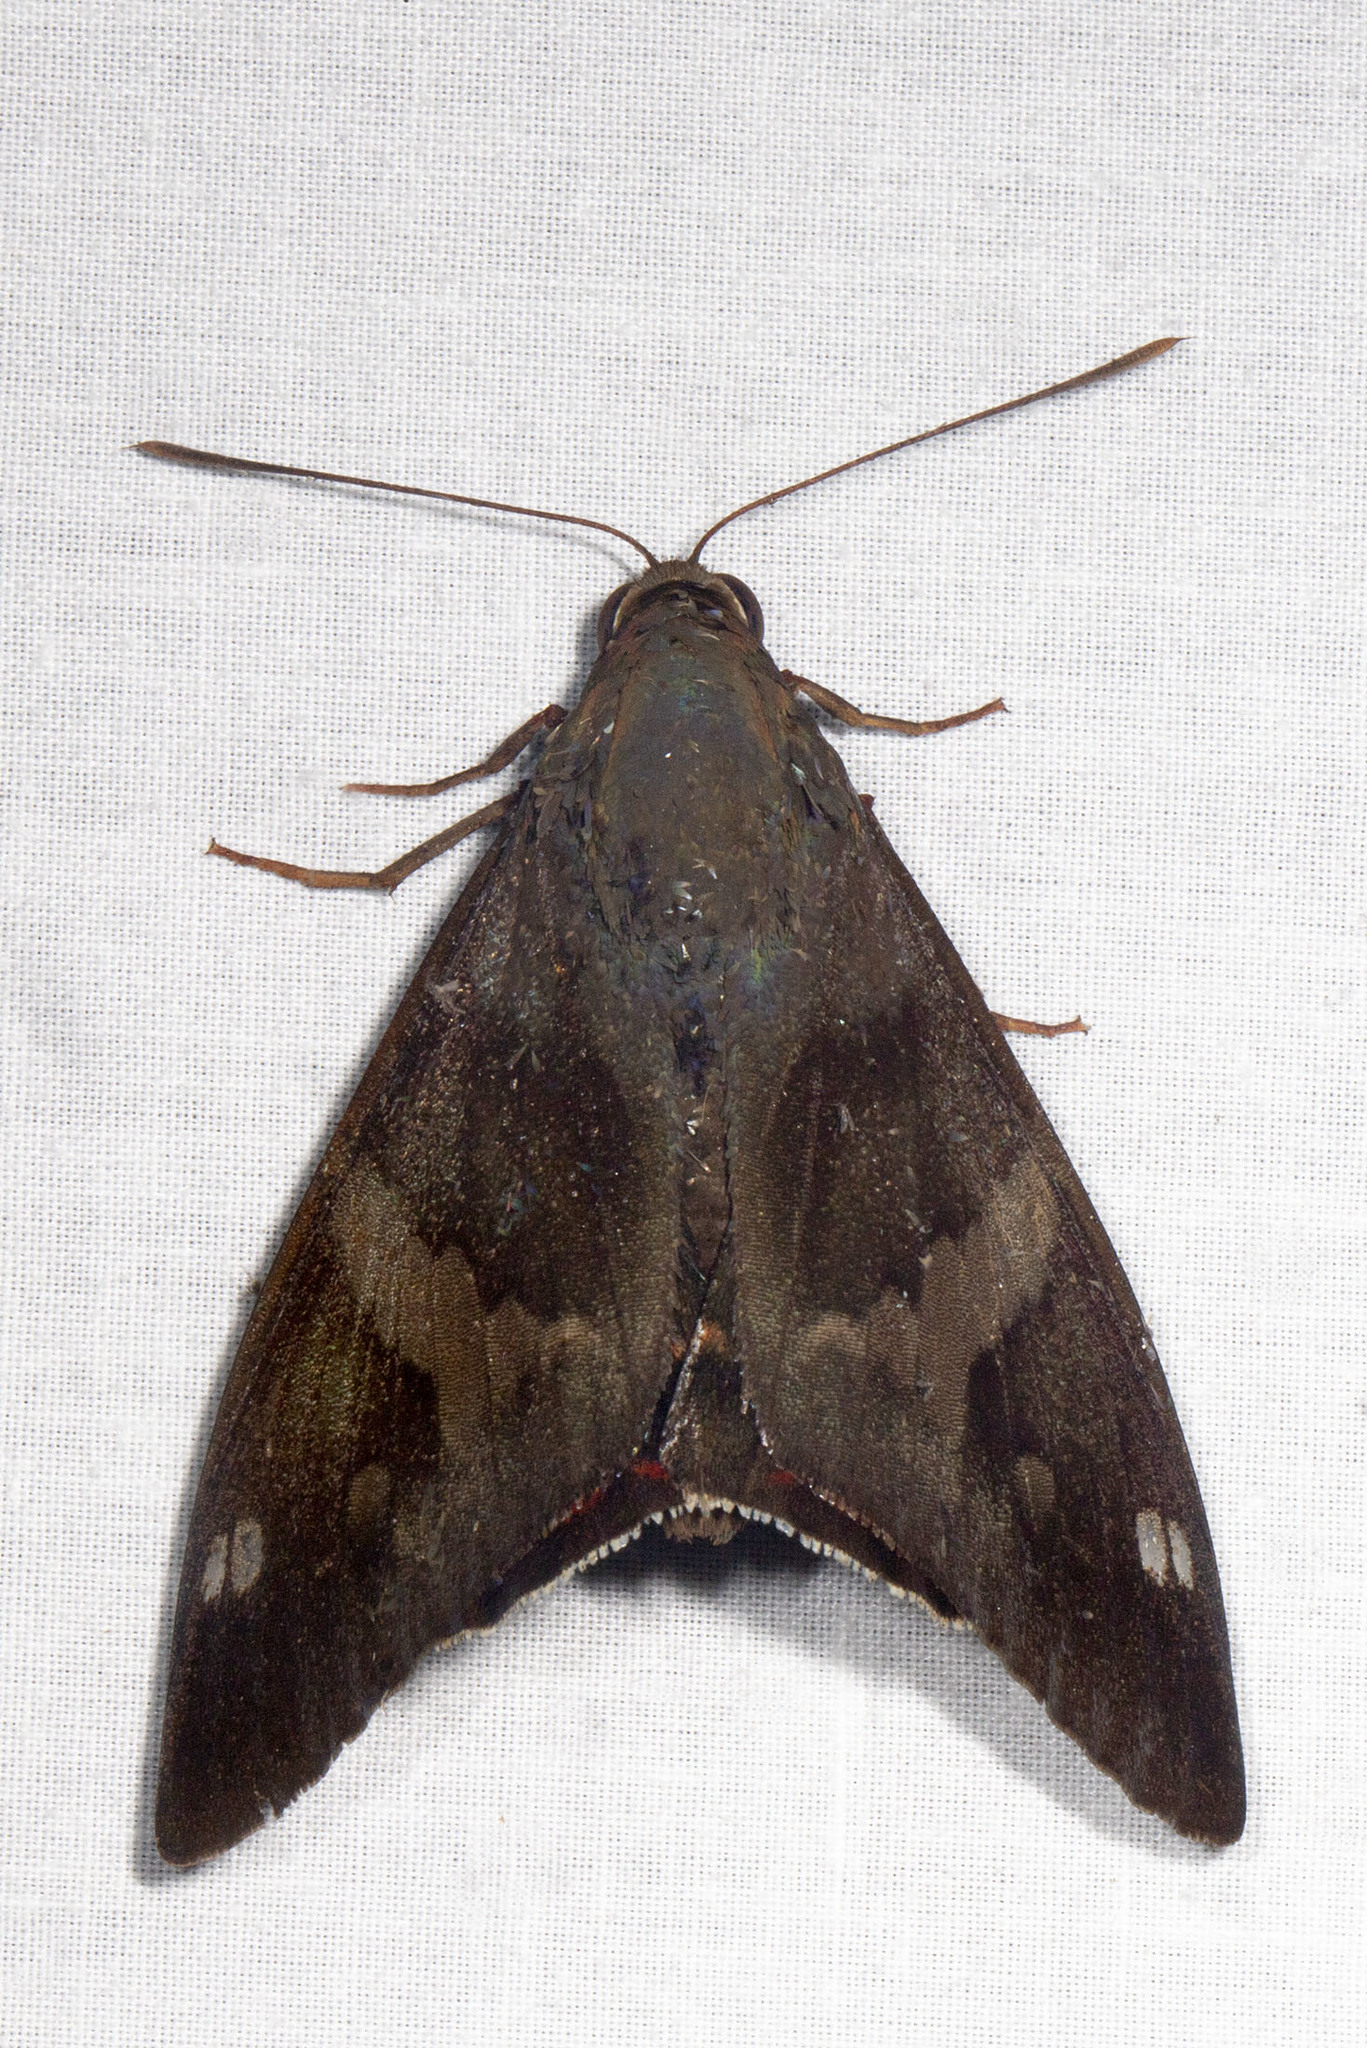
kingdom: Animalia
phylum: Arthropoda
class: Insecta
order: Lepidoptera
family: Castniidae
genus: Corybantes
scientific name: Corybantes mathani
